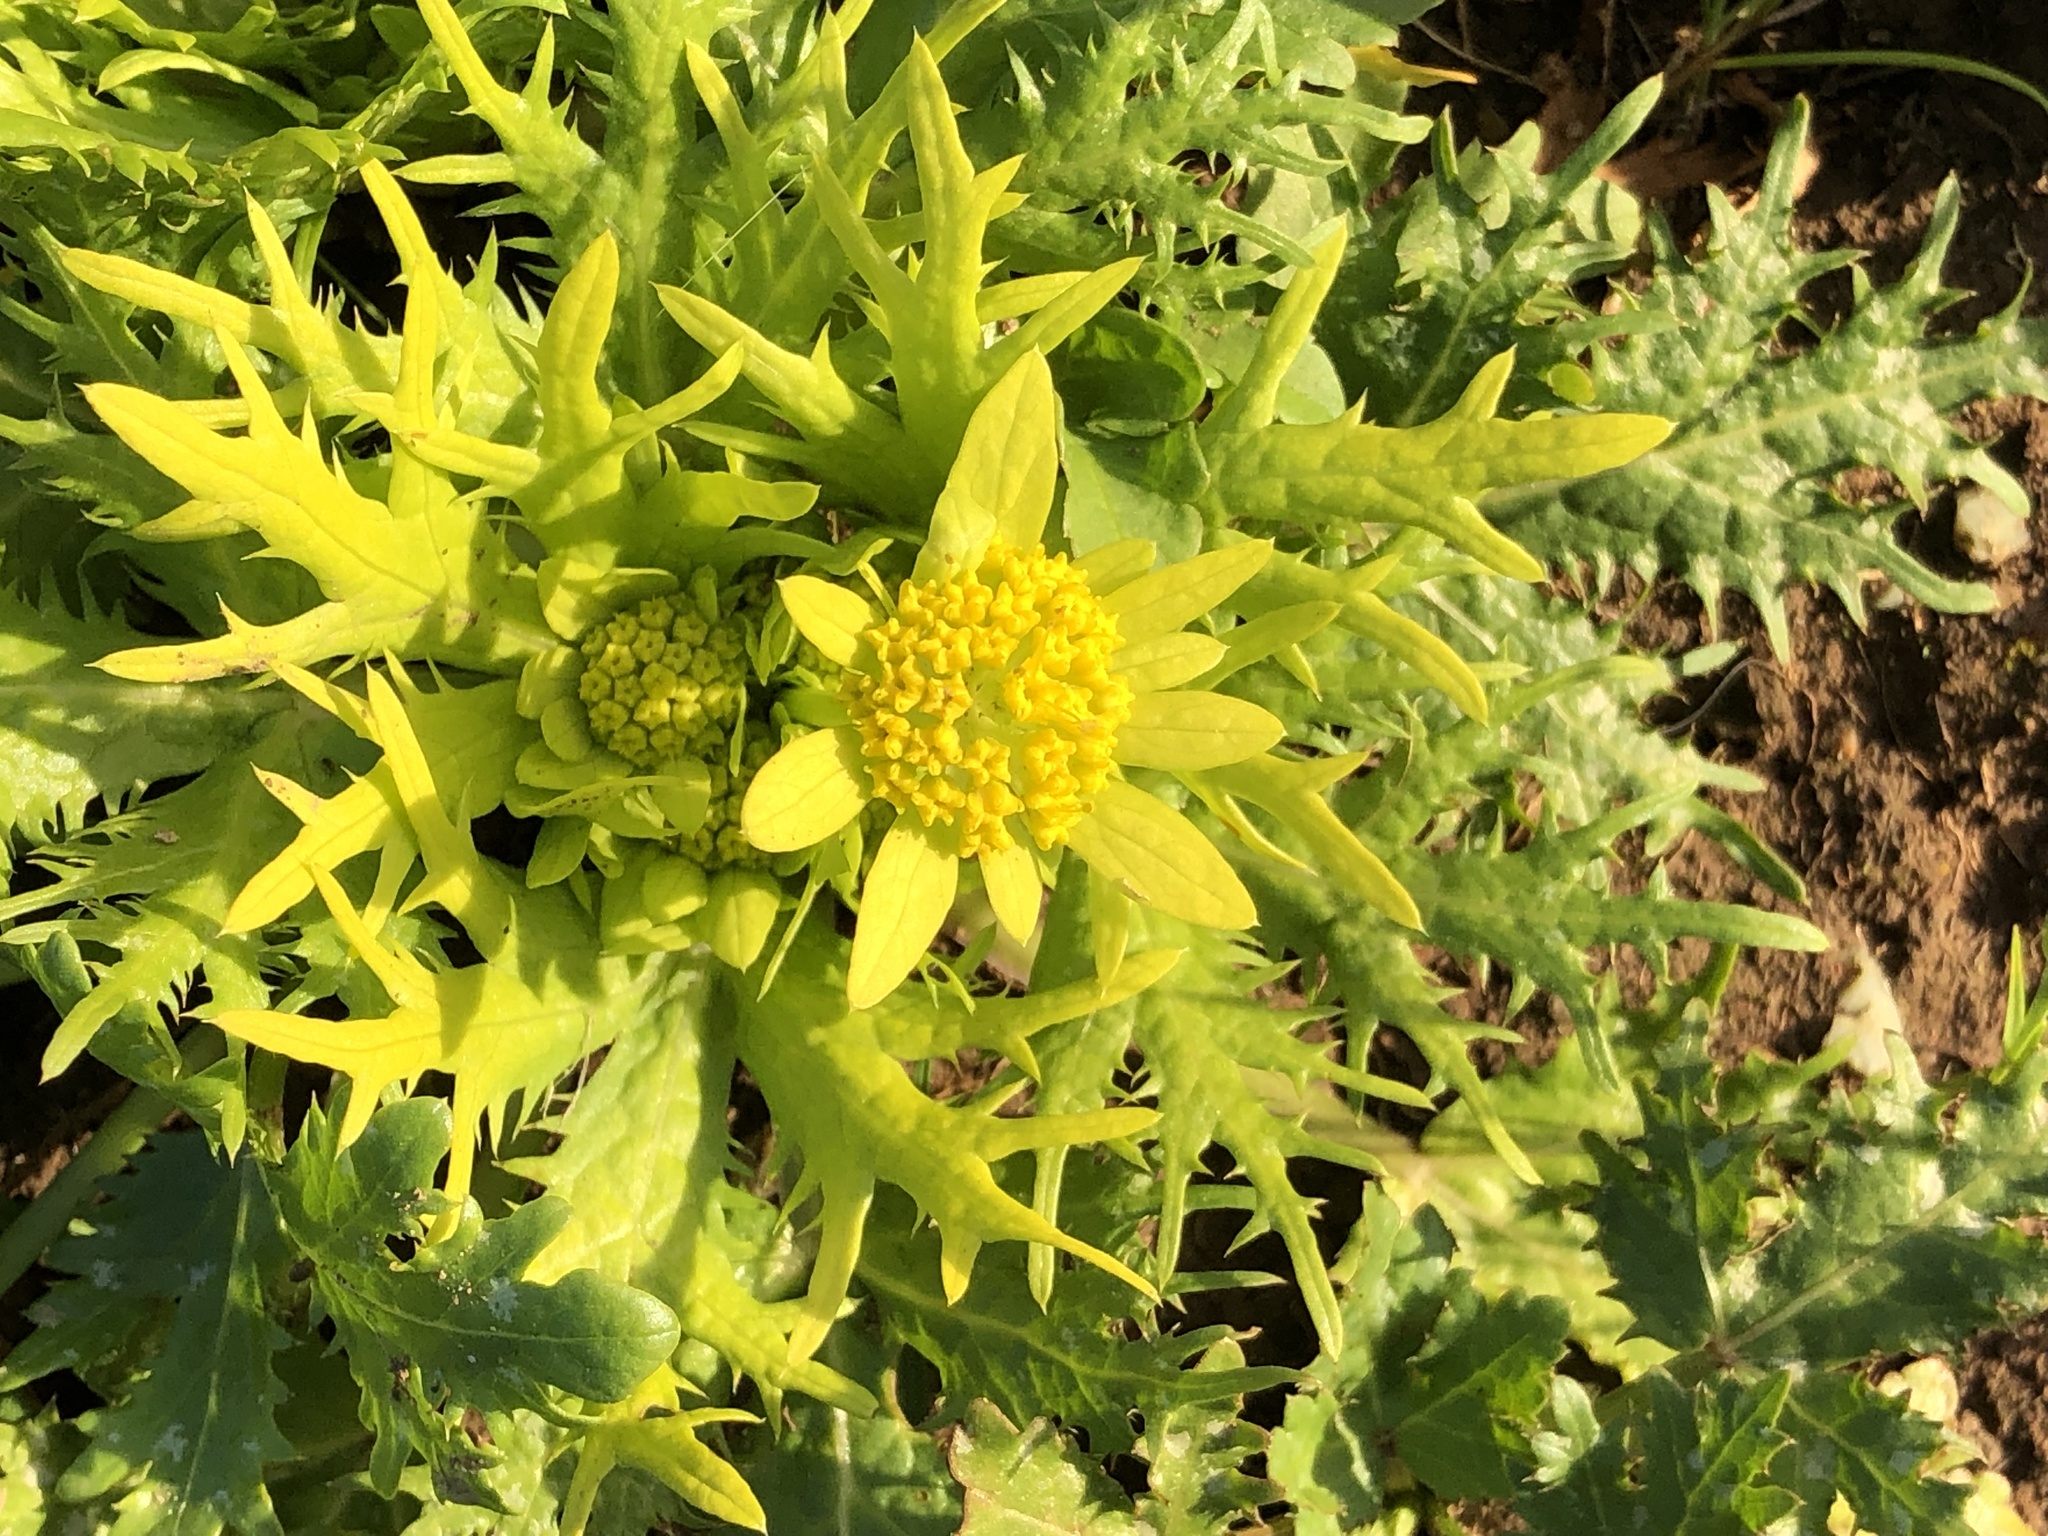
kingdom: Plantae
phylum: Tracheophyta
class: Magnoliopsida
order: Apiales
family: Apiaceae
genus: Sanicula
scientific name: Sanicula arctopoides
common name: Footsteps-of-spring
